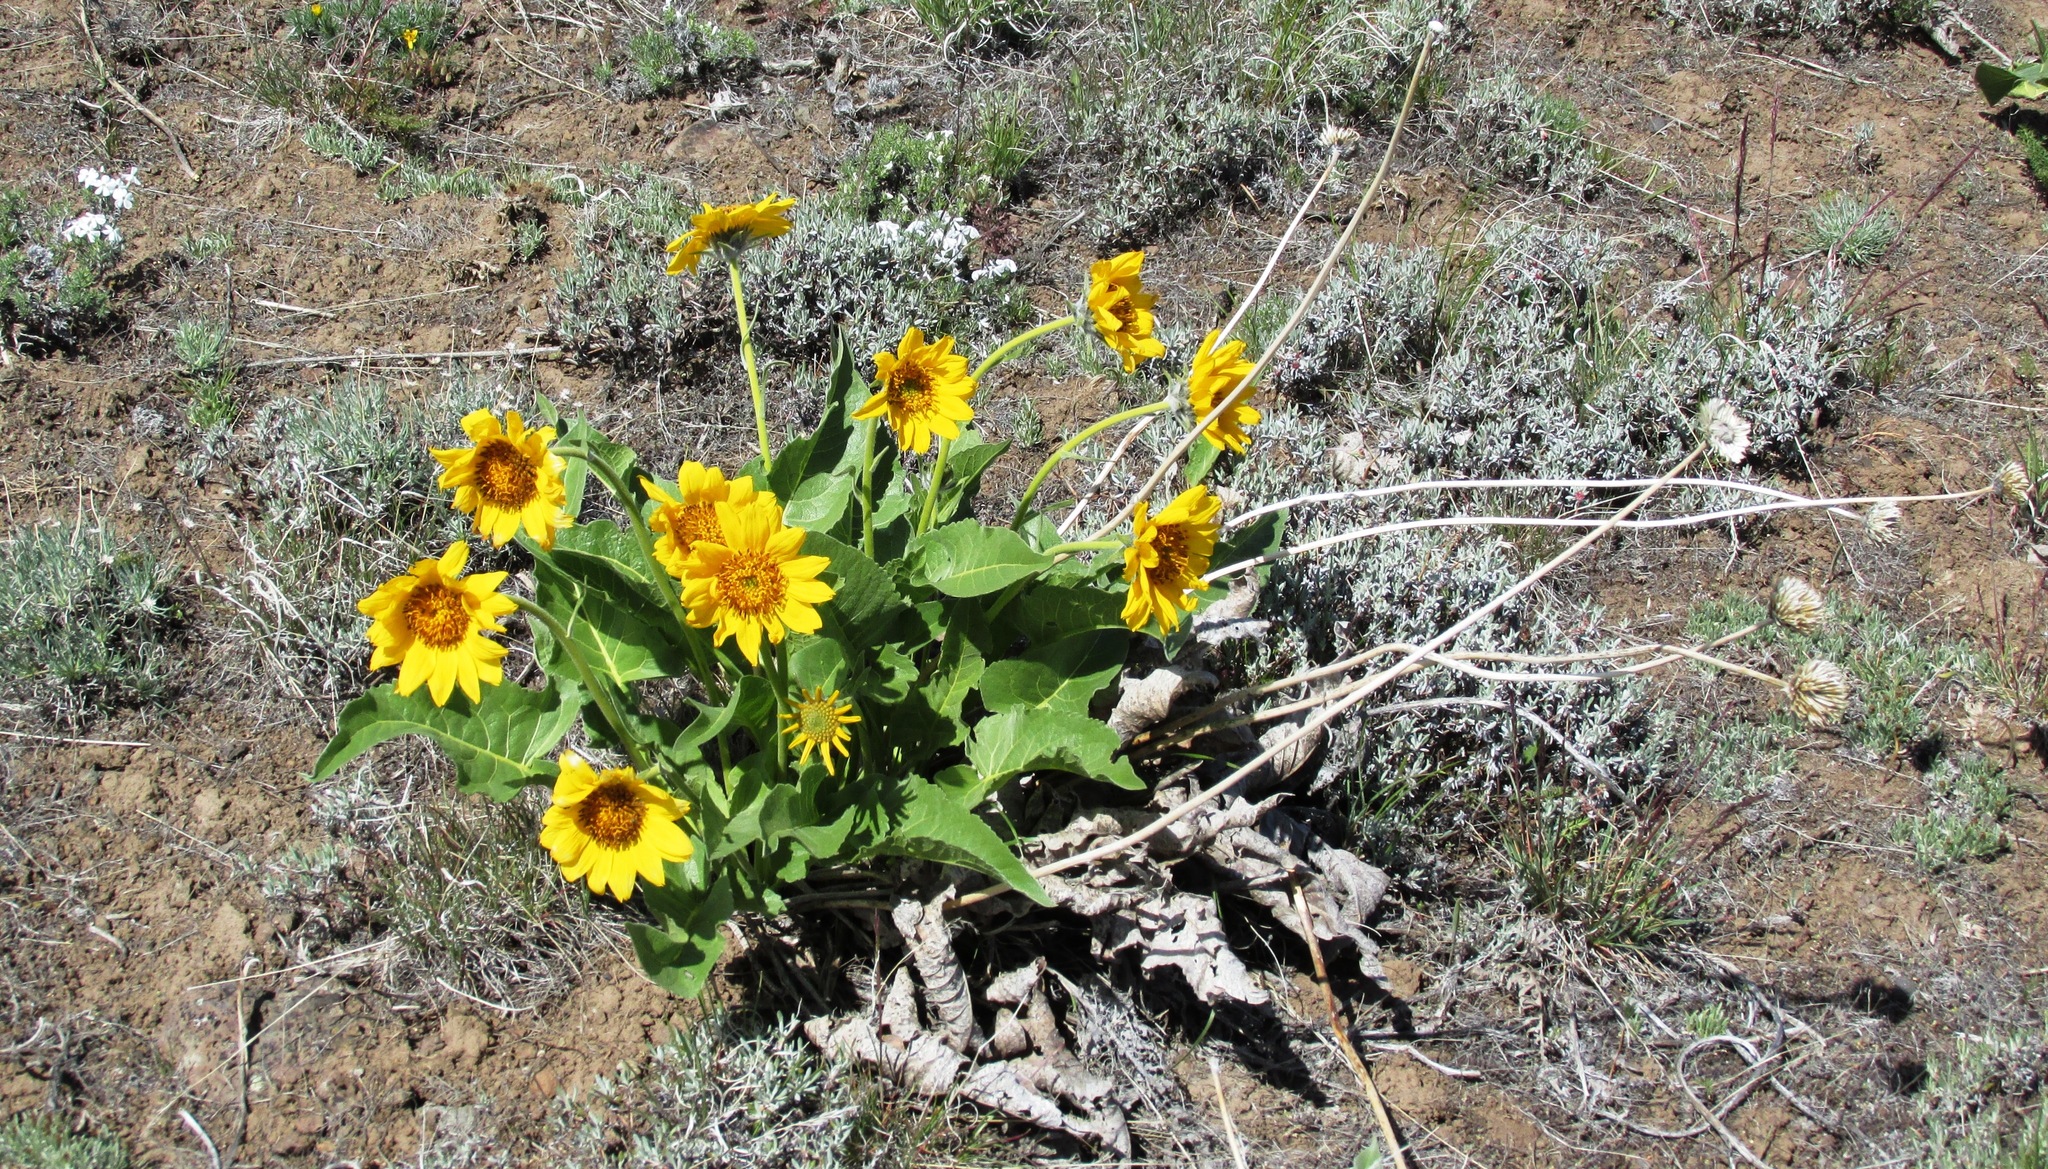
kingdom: Plantae
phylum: Tracheophyta
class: Magnoliopsida
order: Asterales
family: Asteraceae
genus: Balsamorhiza
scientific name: Balsamorhiza careyana
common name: Carey's balsamroot
